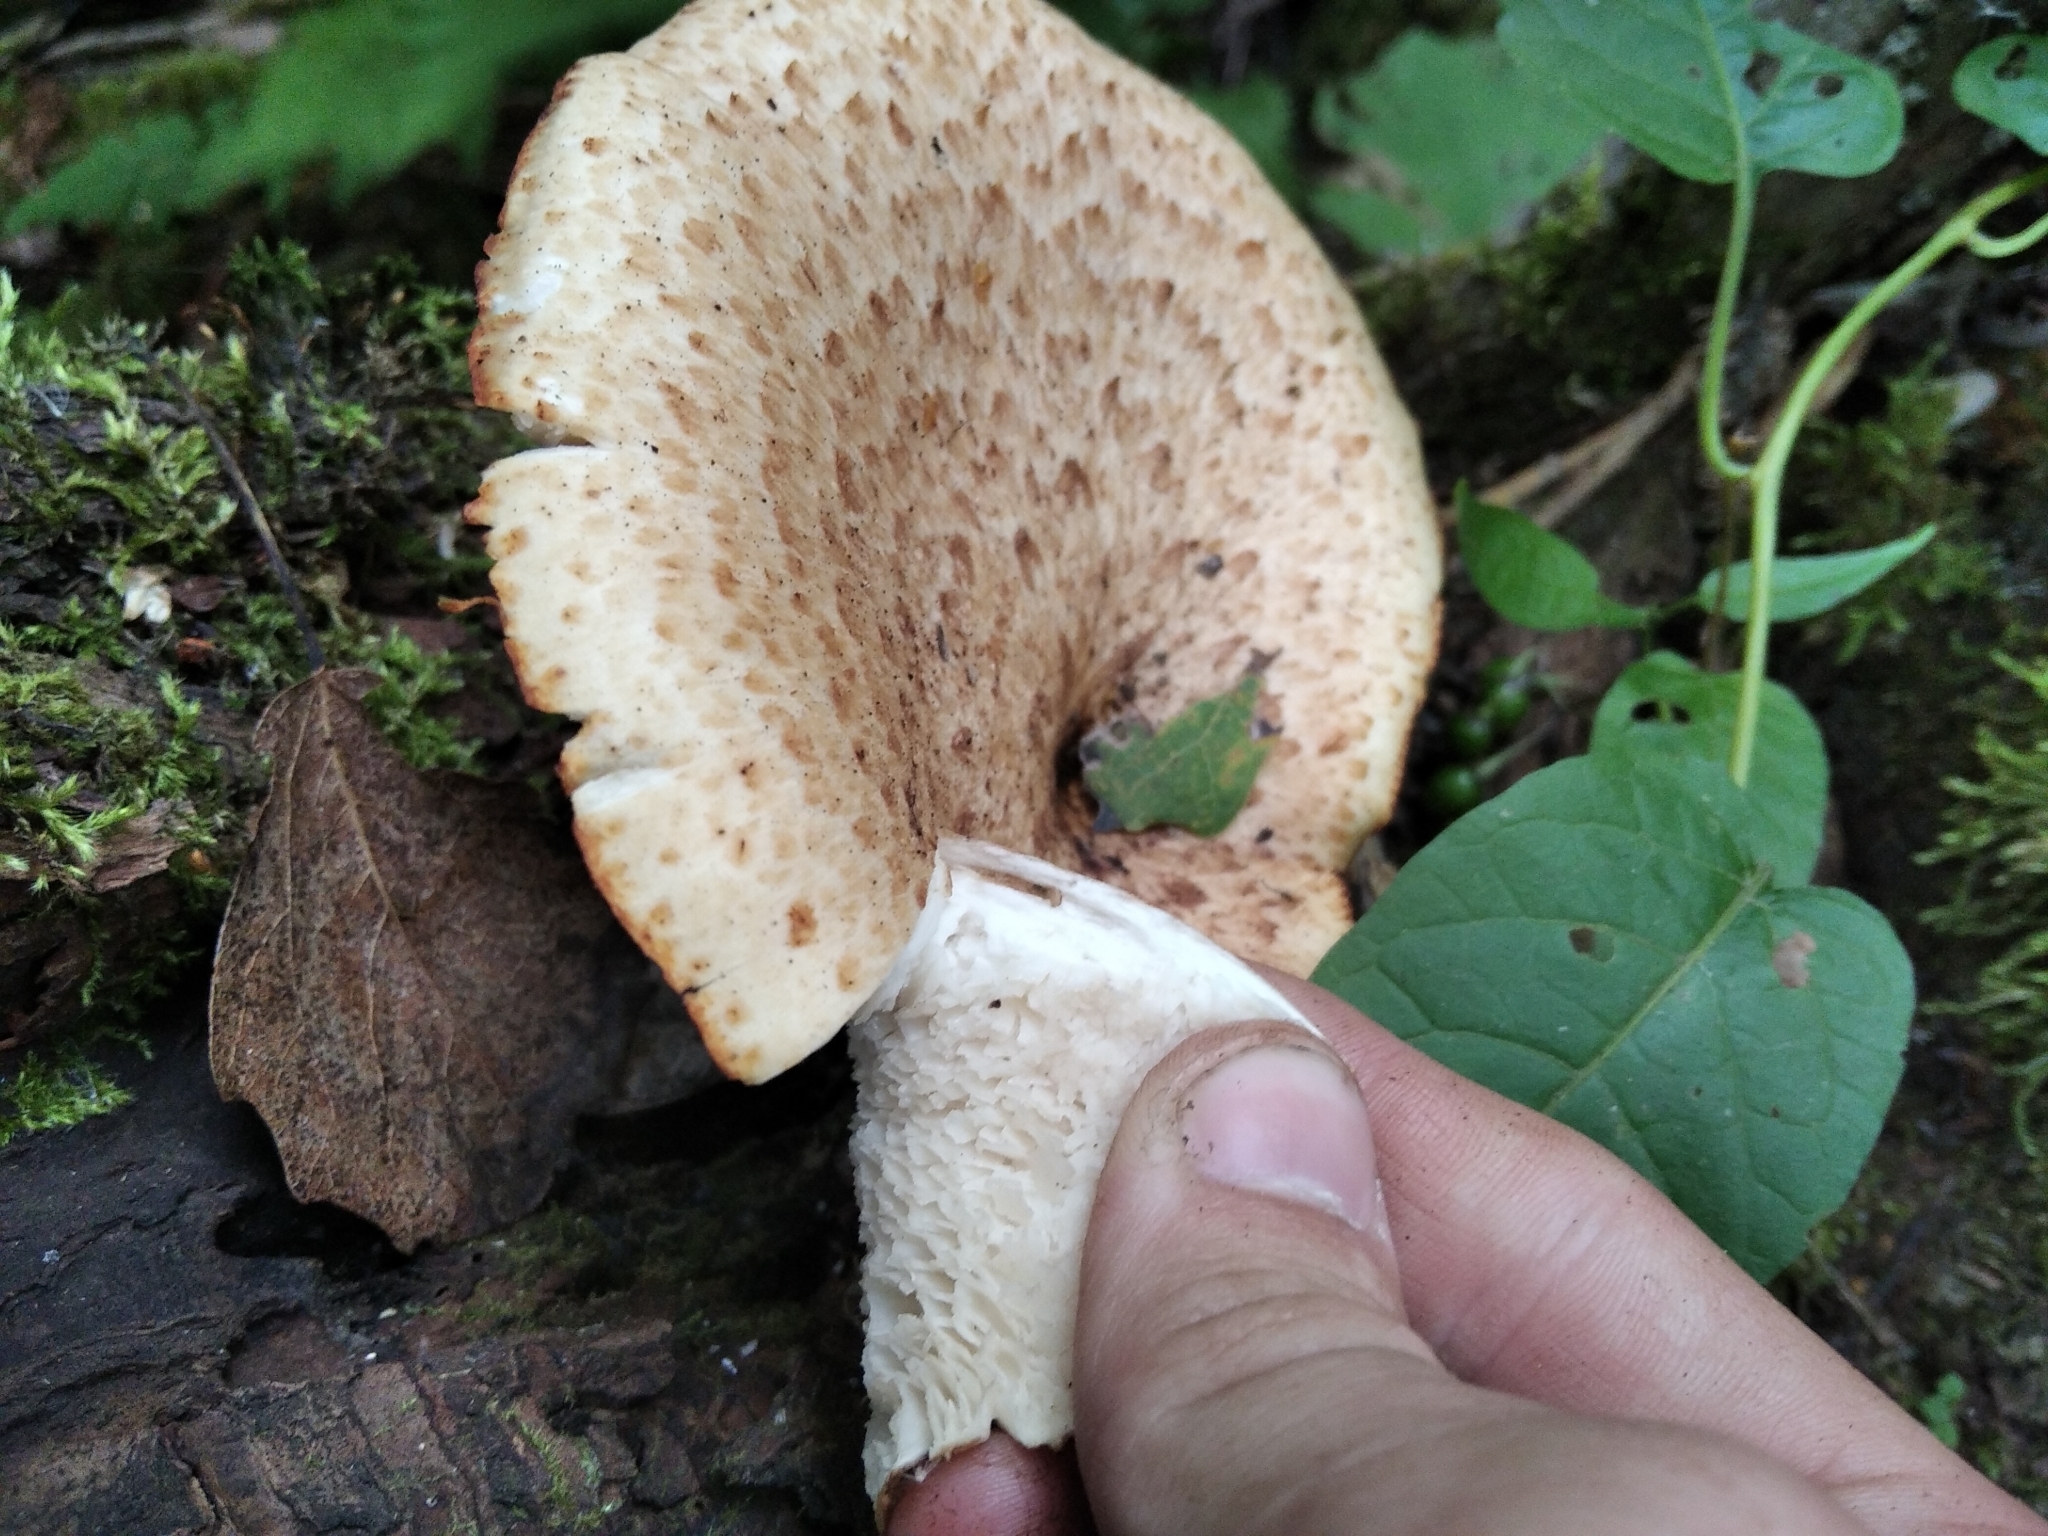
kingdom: Fungi
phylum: Basidiomycota
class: Agaricomycetes
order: Polyporales
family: Polyporaceae
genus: Cerioporus
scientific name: Cerioporus squamosus
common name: Dryad's saddle
